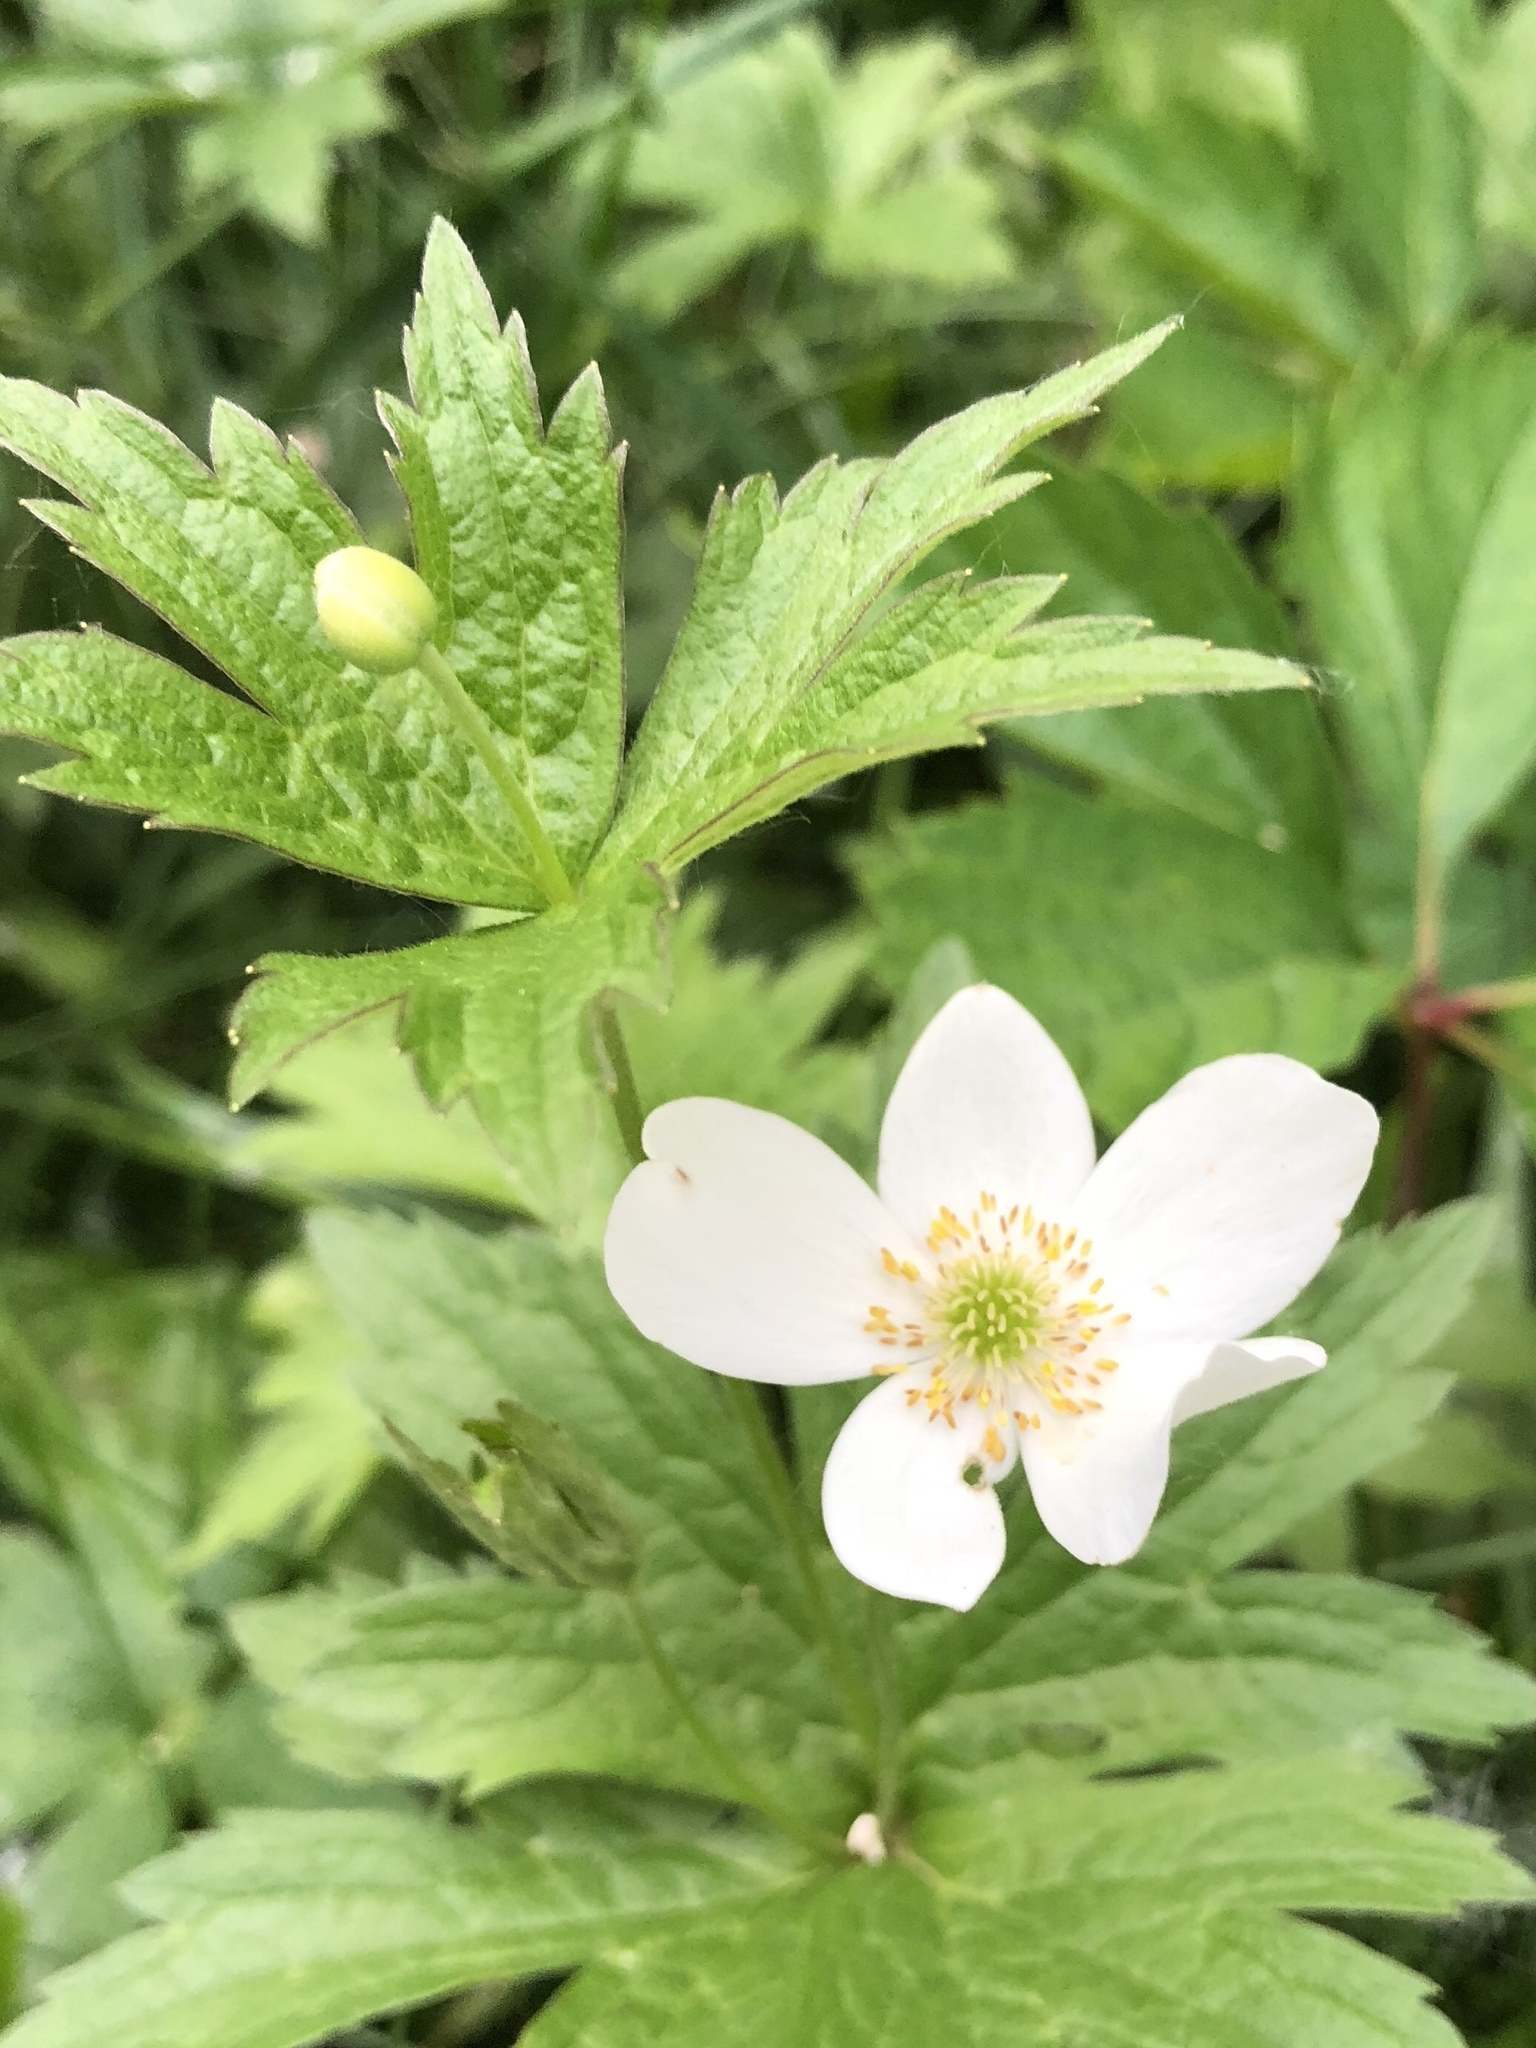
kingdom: Plantae
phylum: Tracheophyta
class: Magnoliopsida
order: Ranunculales
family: Ranunculaceae
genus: Anemonastrum
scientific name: Anemonastrum canadense
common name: Canada anemone
